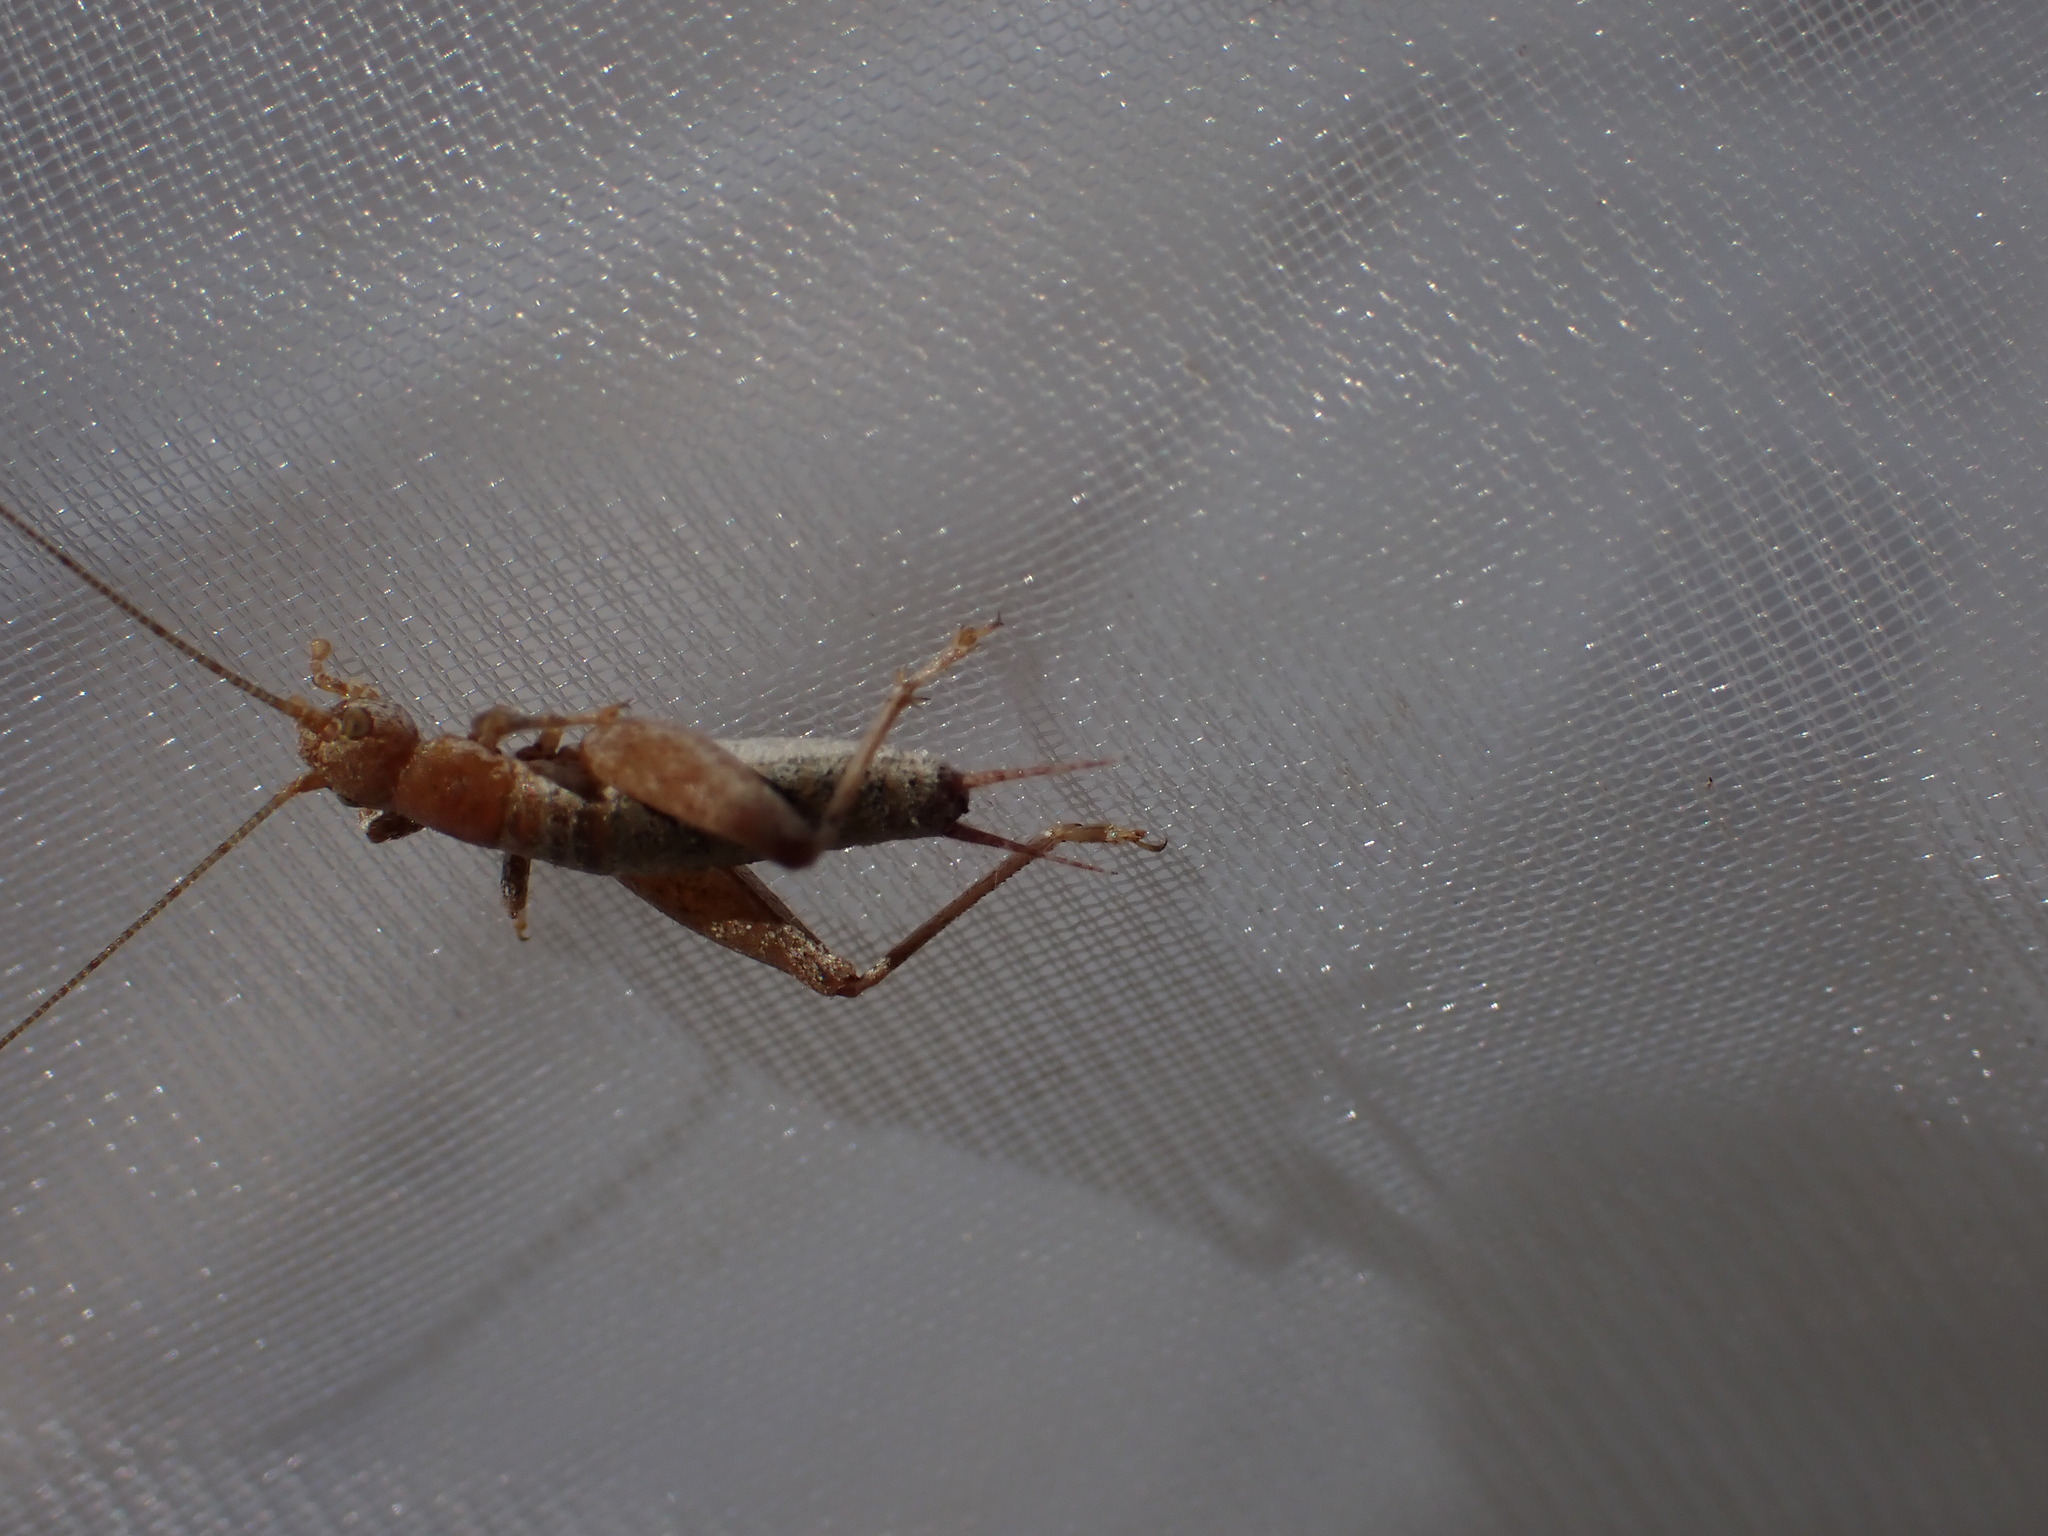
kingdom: Animalia
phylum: Arthropoda
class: Insecta
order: Orthoptera
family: Mogoplistidae
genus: Arachnocephalus
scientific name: Arachnocephalus vestitus
